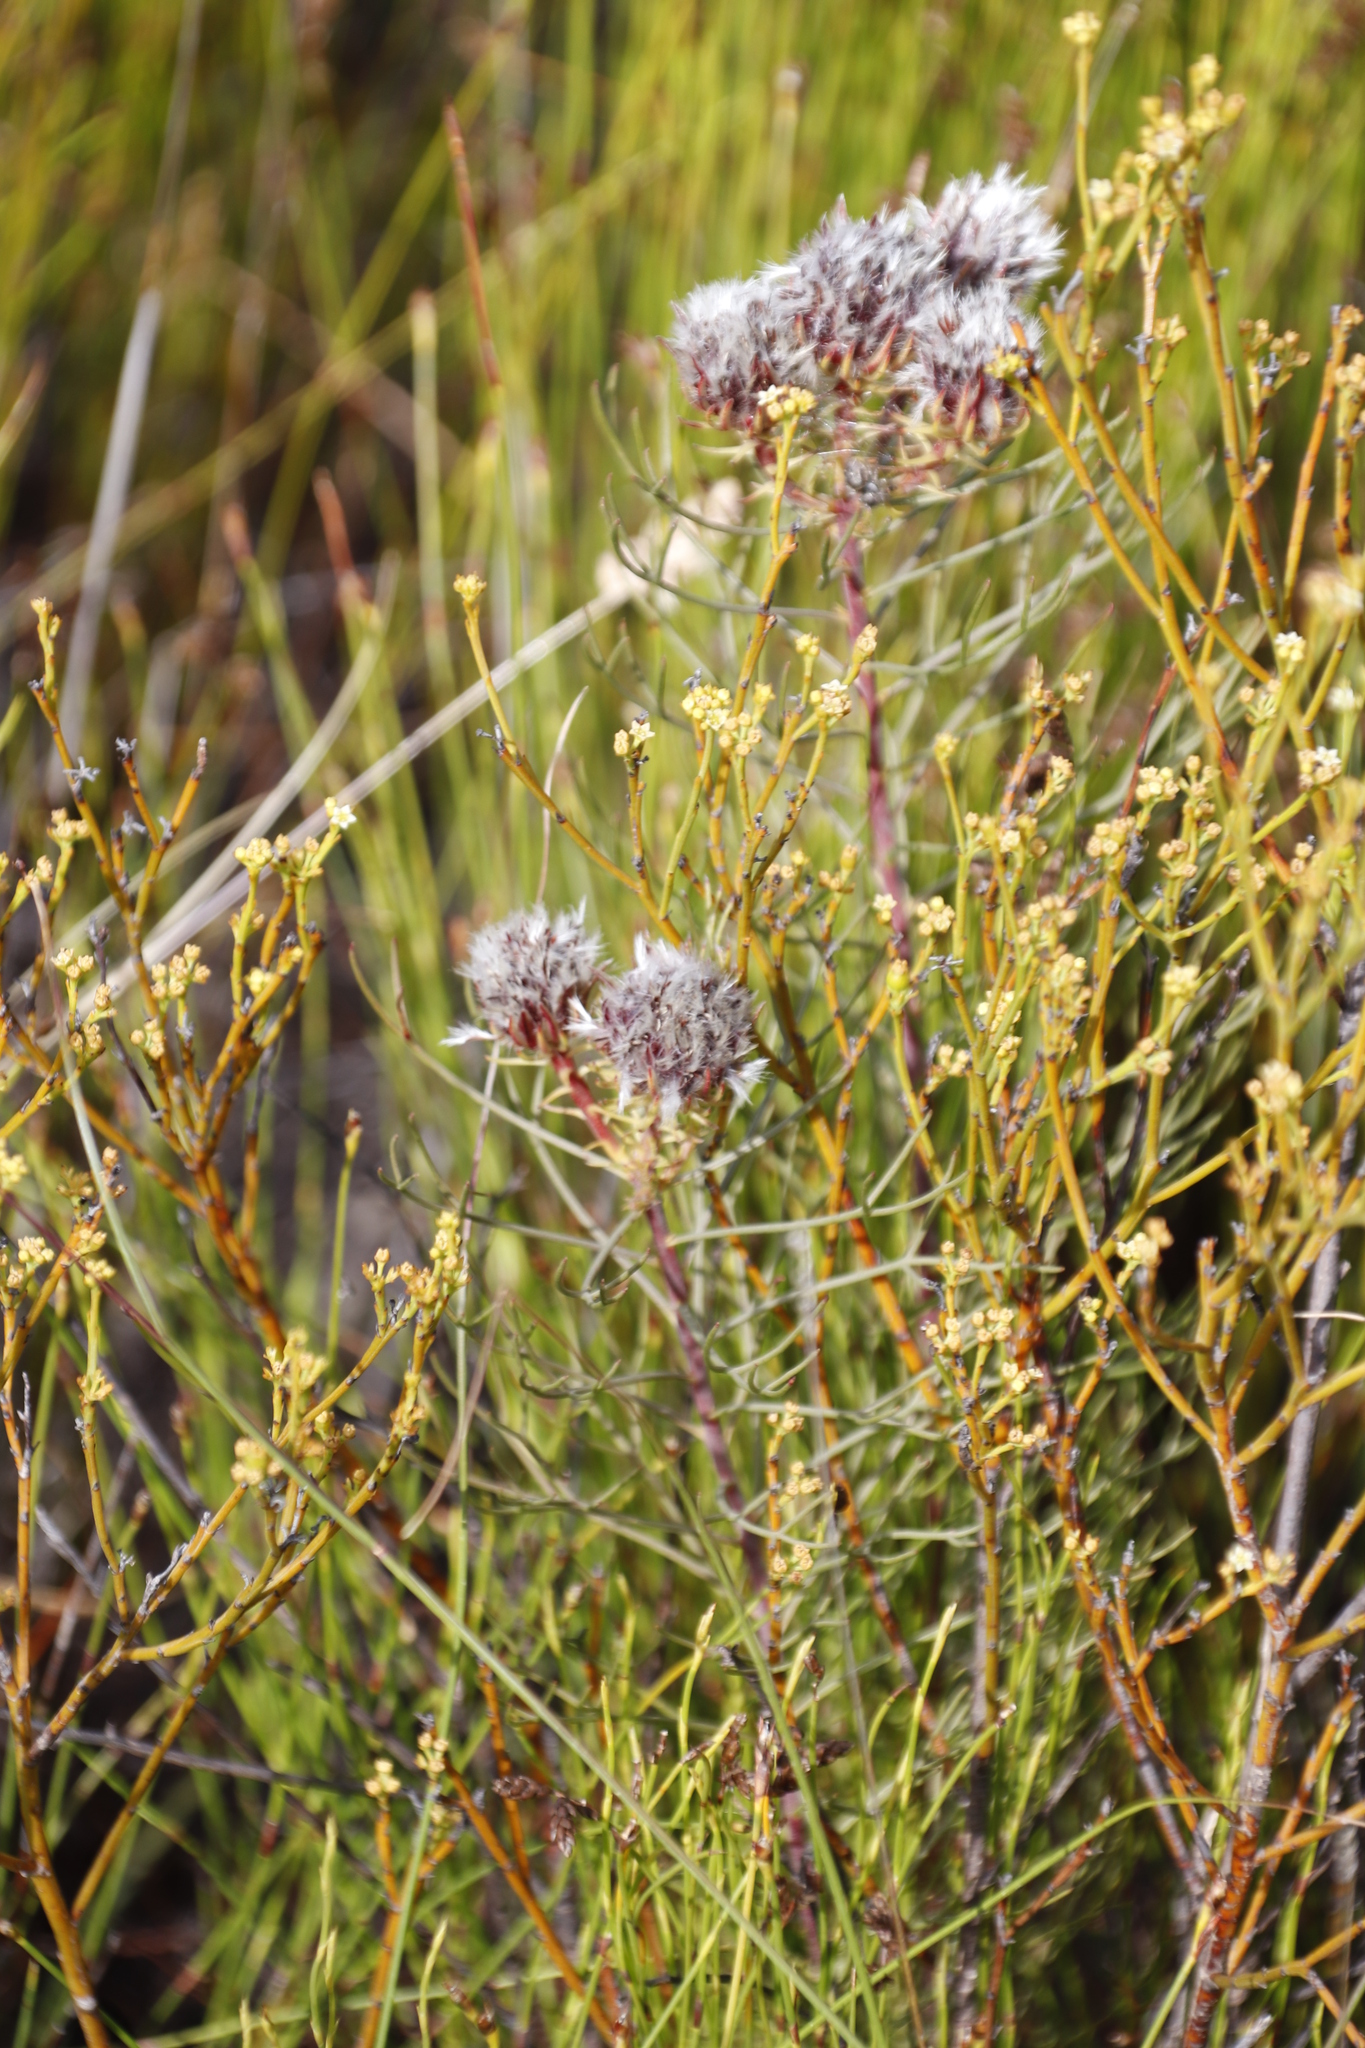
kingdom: Plantae
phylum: Tracheophyta
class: Magnoliopsida
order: Proteales
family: Proteaceae
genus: Serruria
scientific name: Serruria phylicoides
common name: Bearded spiderhead
